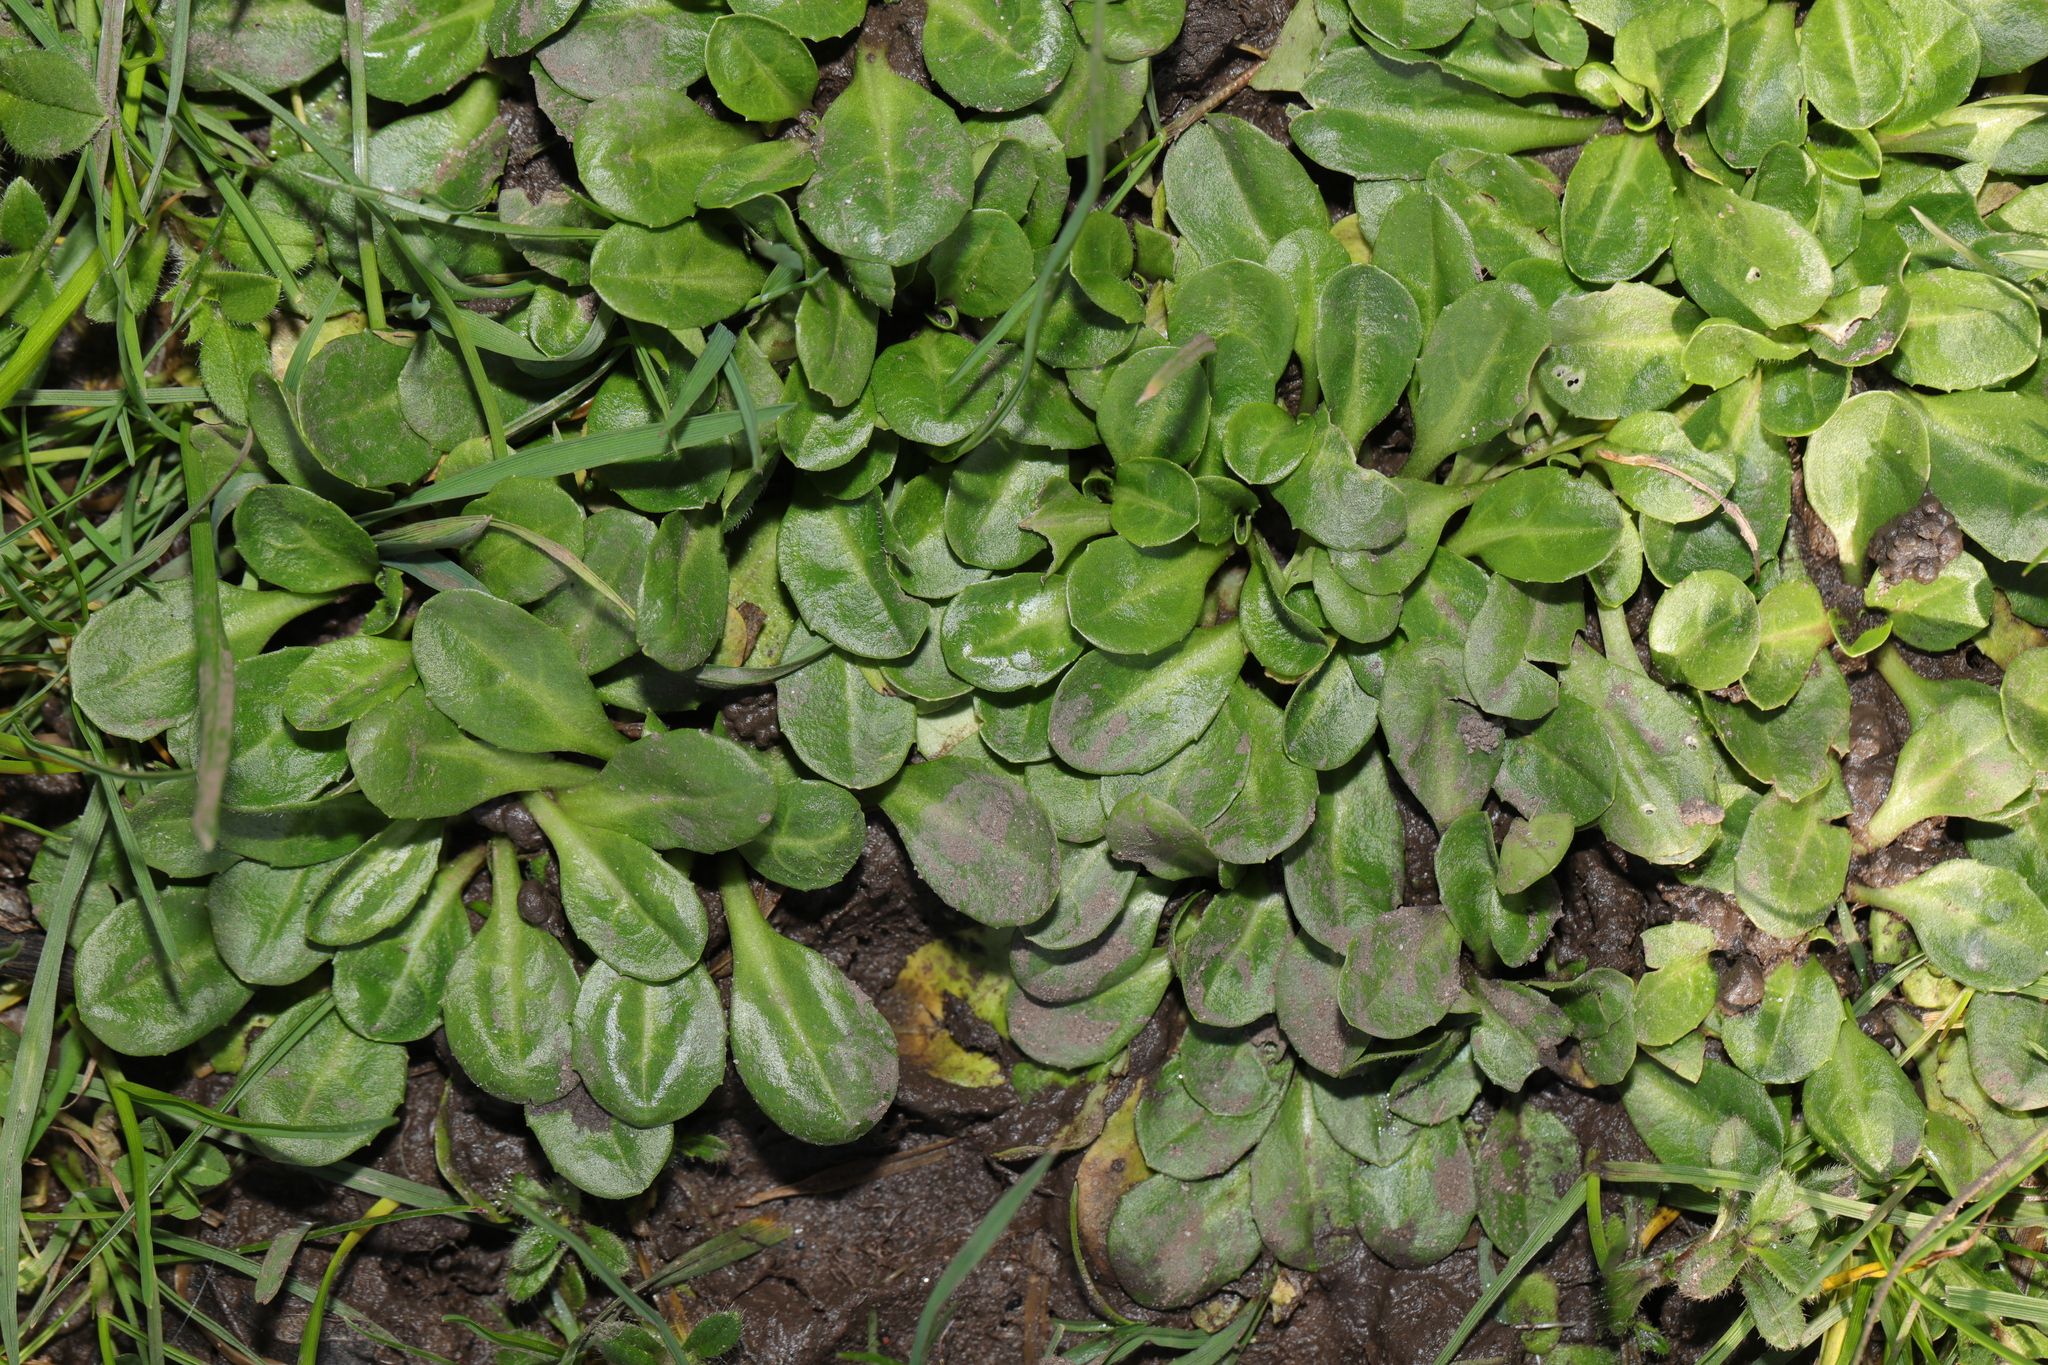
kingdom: Plantae
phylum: Tracheophyta
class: Magnoliopsida
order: Asterales
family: Asteraceae
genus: Bellis
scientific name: Bellis perennis
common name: Lawndaisy
